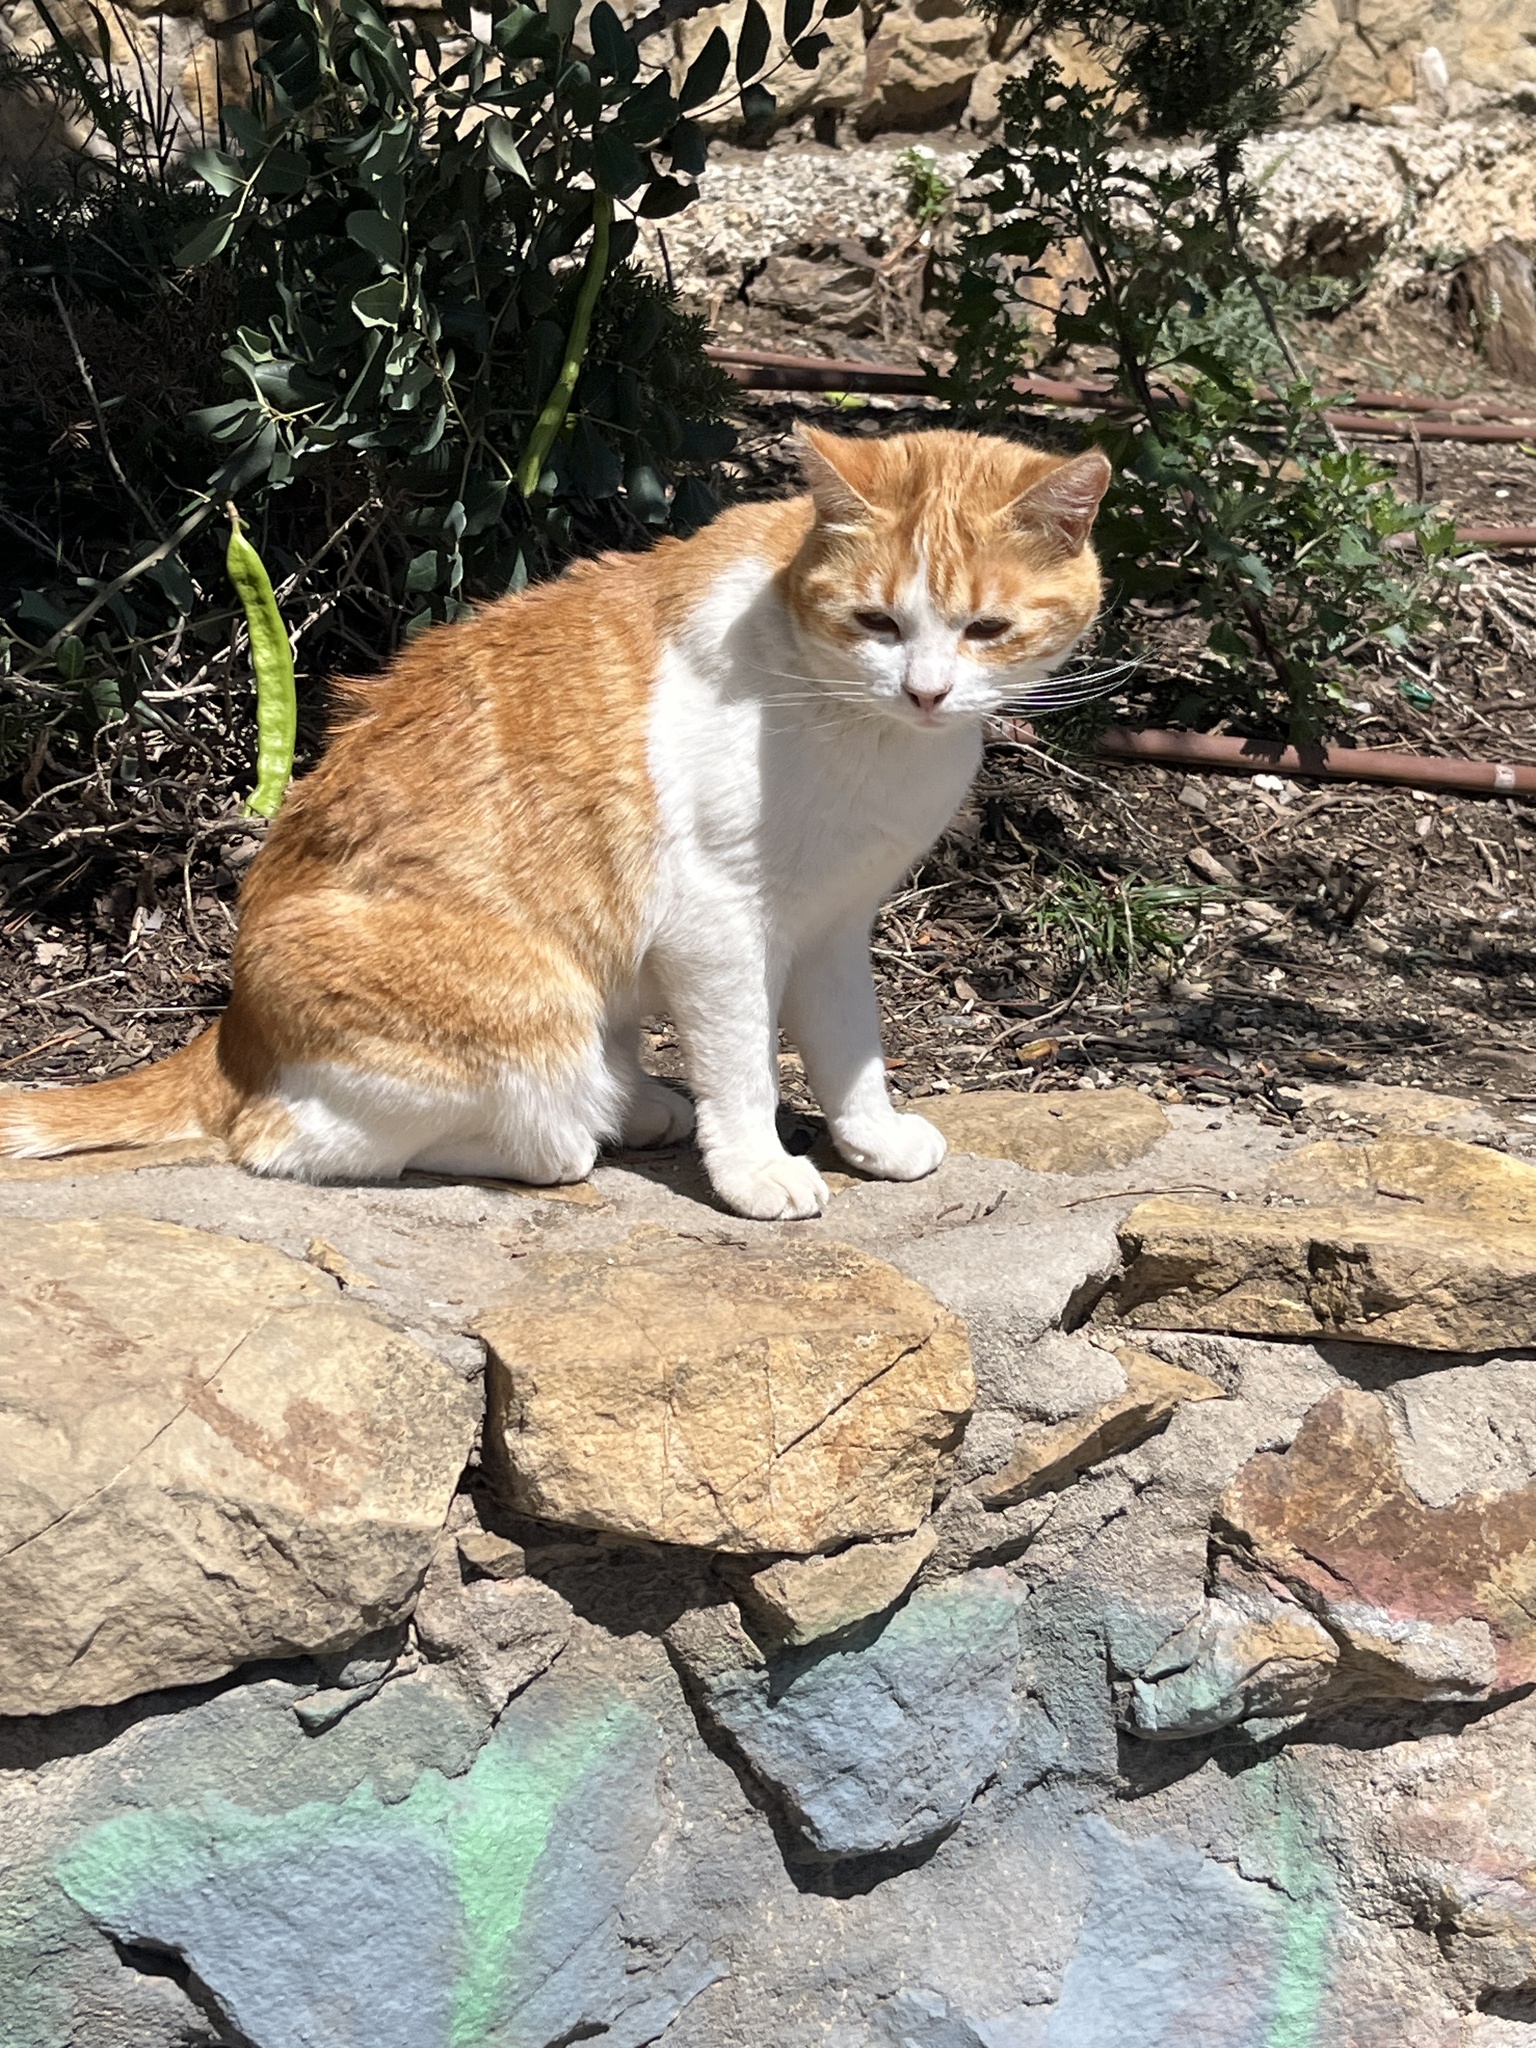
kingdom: Animalia
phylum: Chordata
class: Mammalia
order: Carnivora
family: Felidae
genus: Felis
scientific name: Felis catus
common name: Domestic cat
